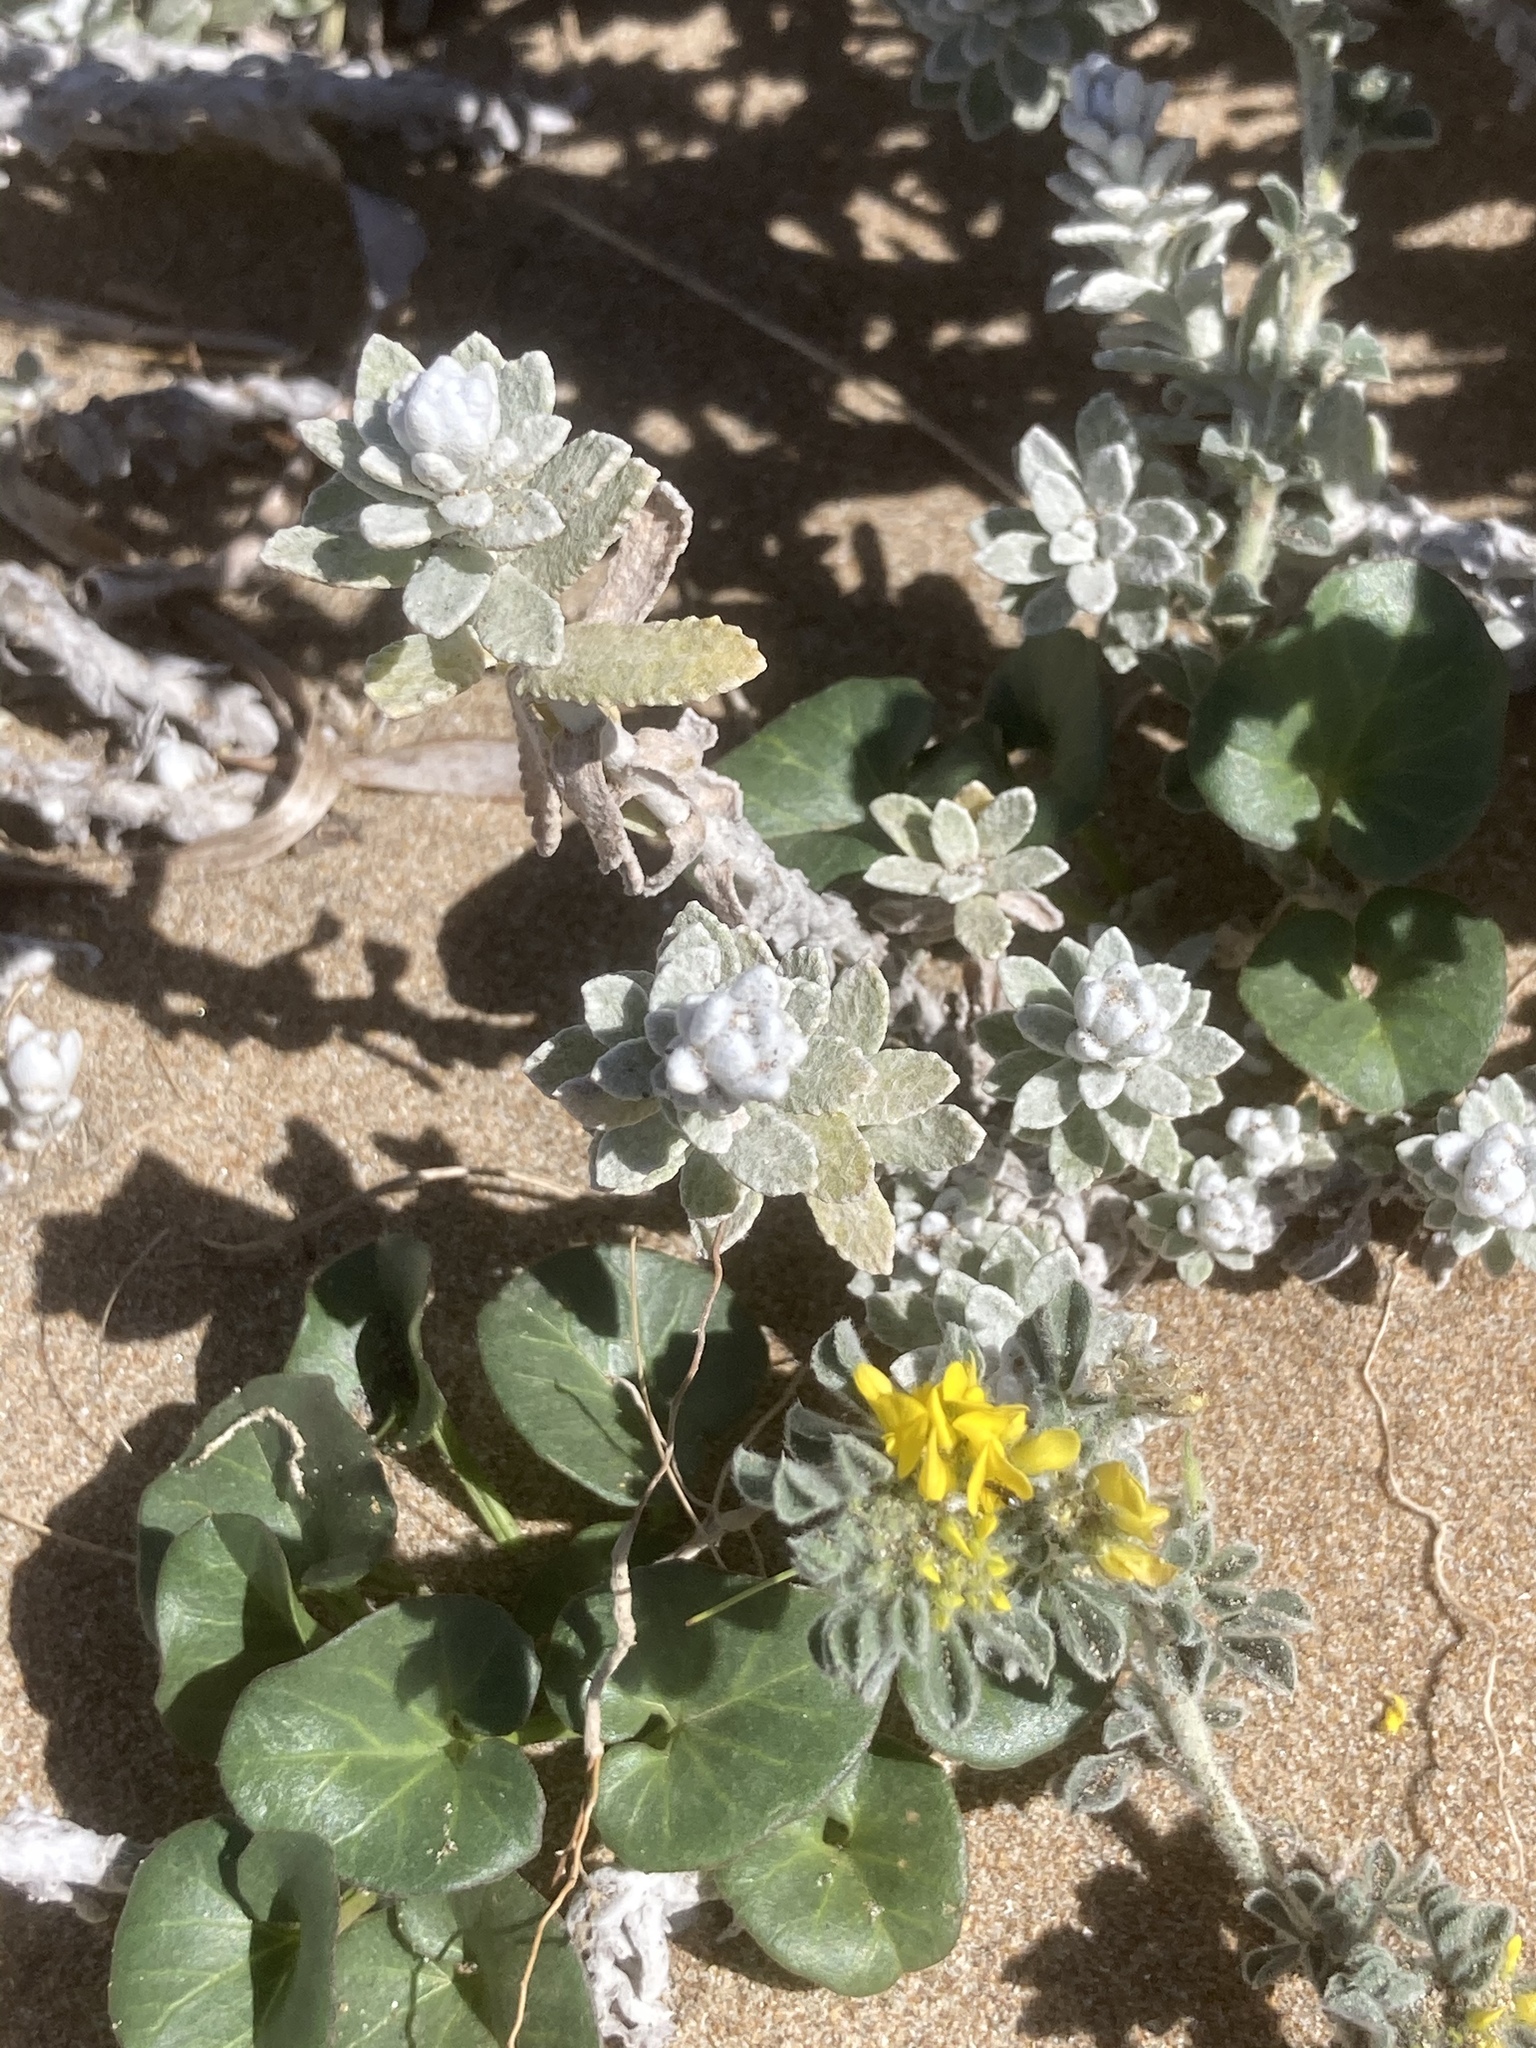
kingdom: Plantae
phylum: Tracheophyta
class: Magnoliopsida
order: Fabales
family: Fabaceae
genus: Medicago
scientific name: Medicago marina
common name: Sea medick
